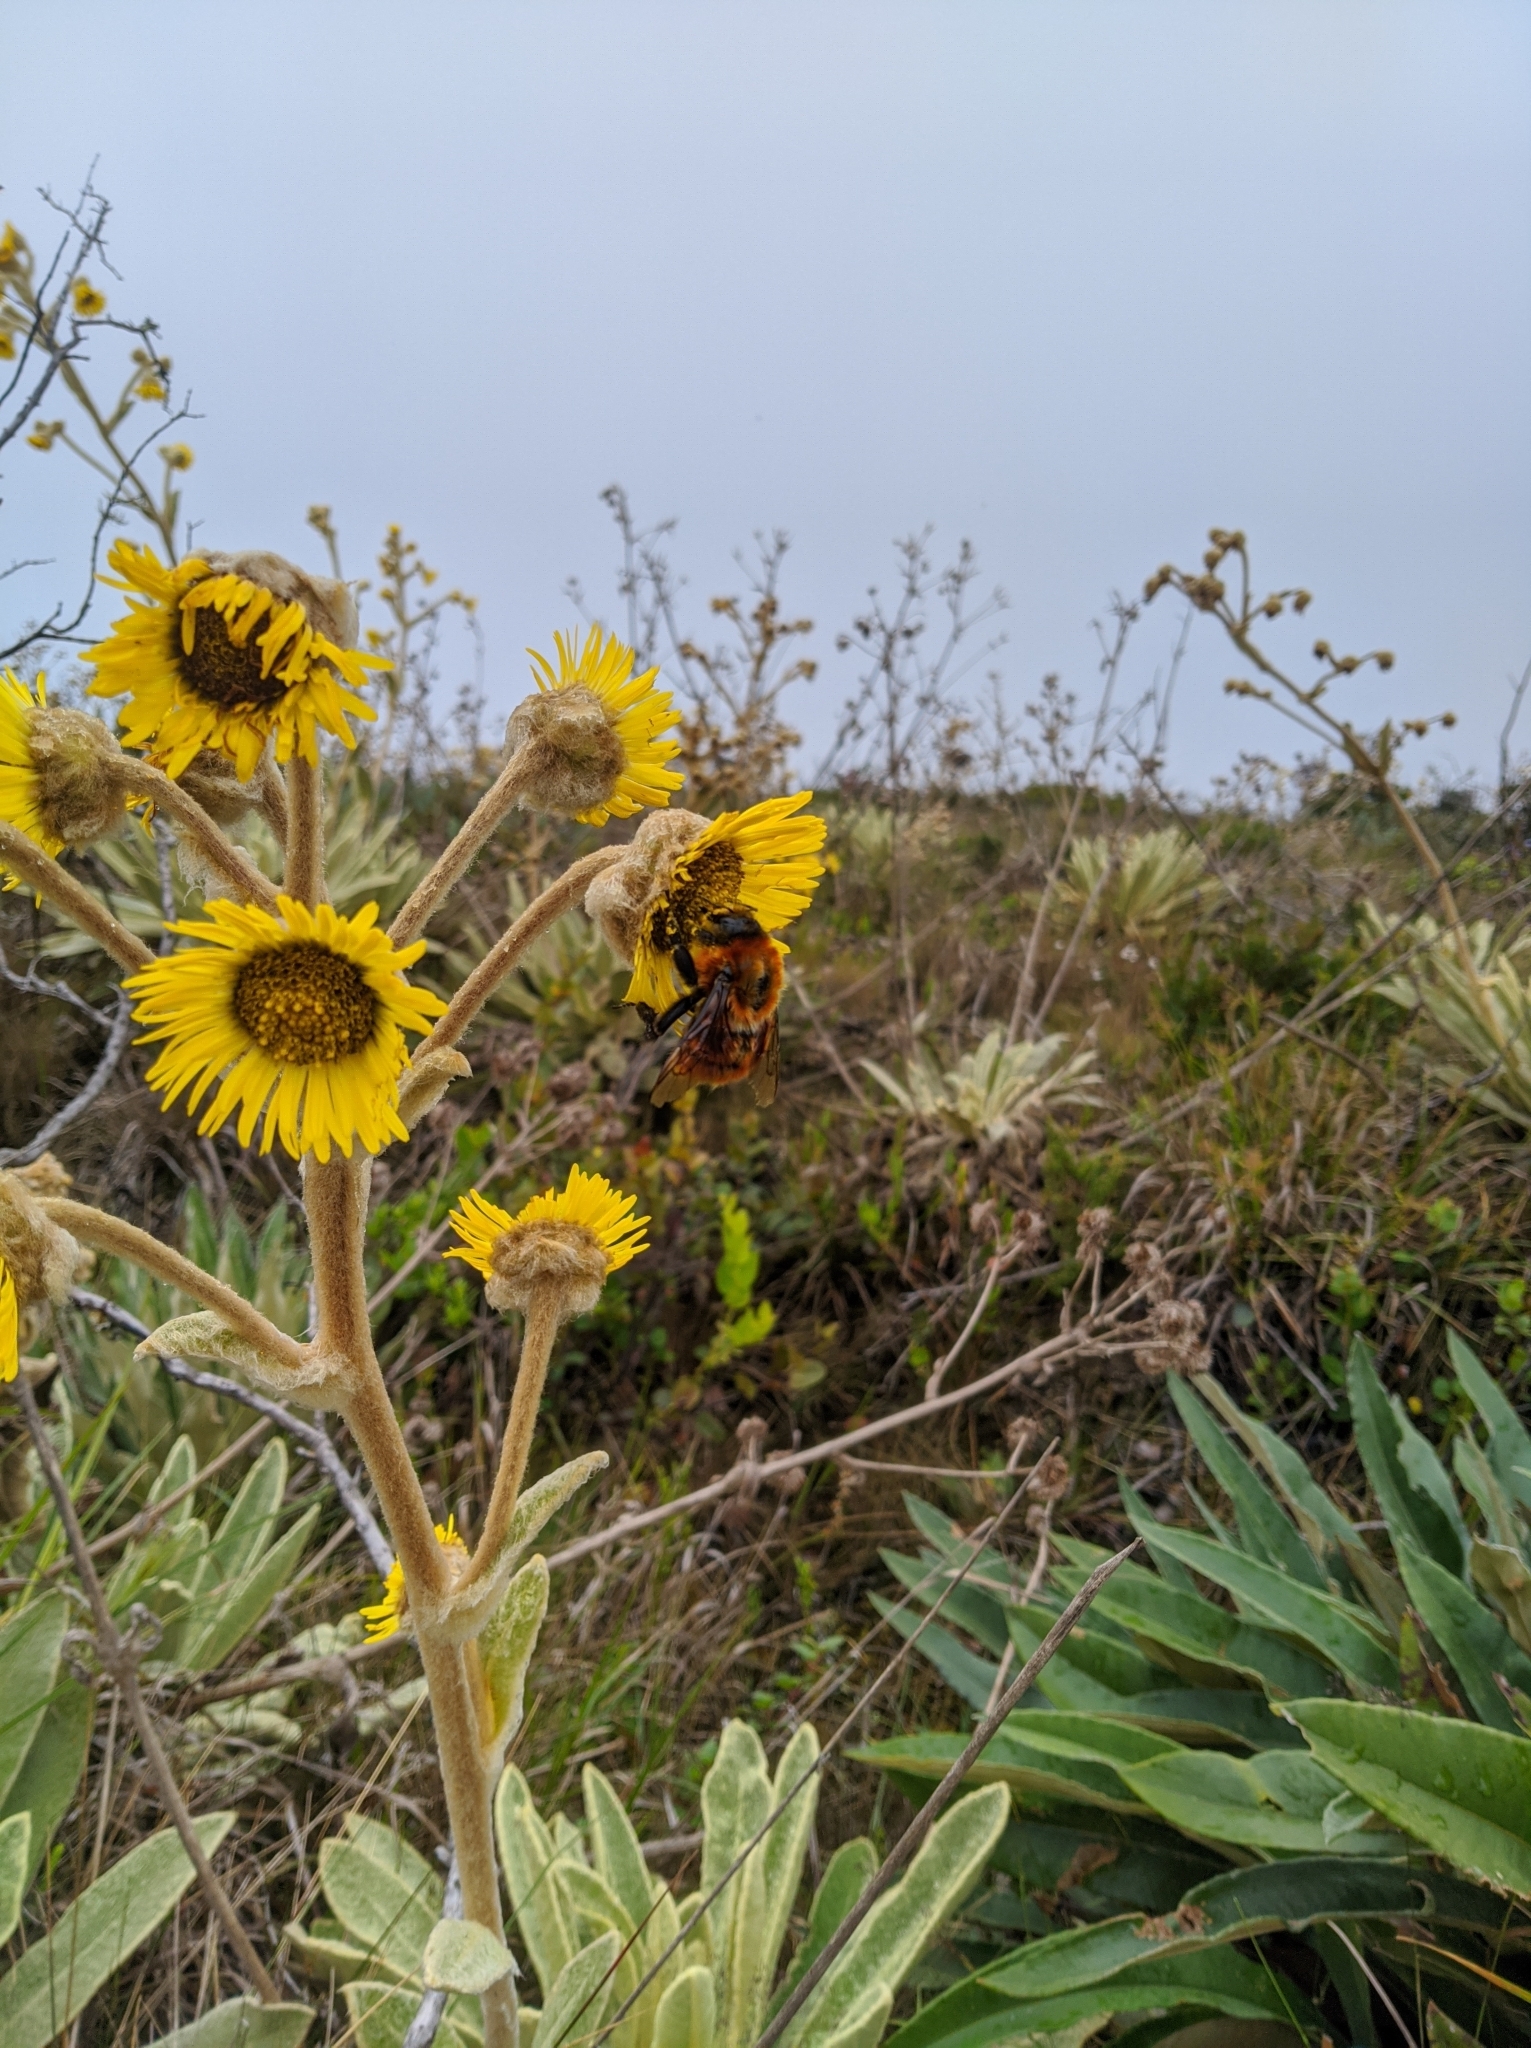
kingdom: Animalia
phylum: Arthropoda
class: Insecta
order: Hymenoptera
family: Apidae
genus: Bombus
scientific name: Bombus rubicundus
